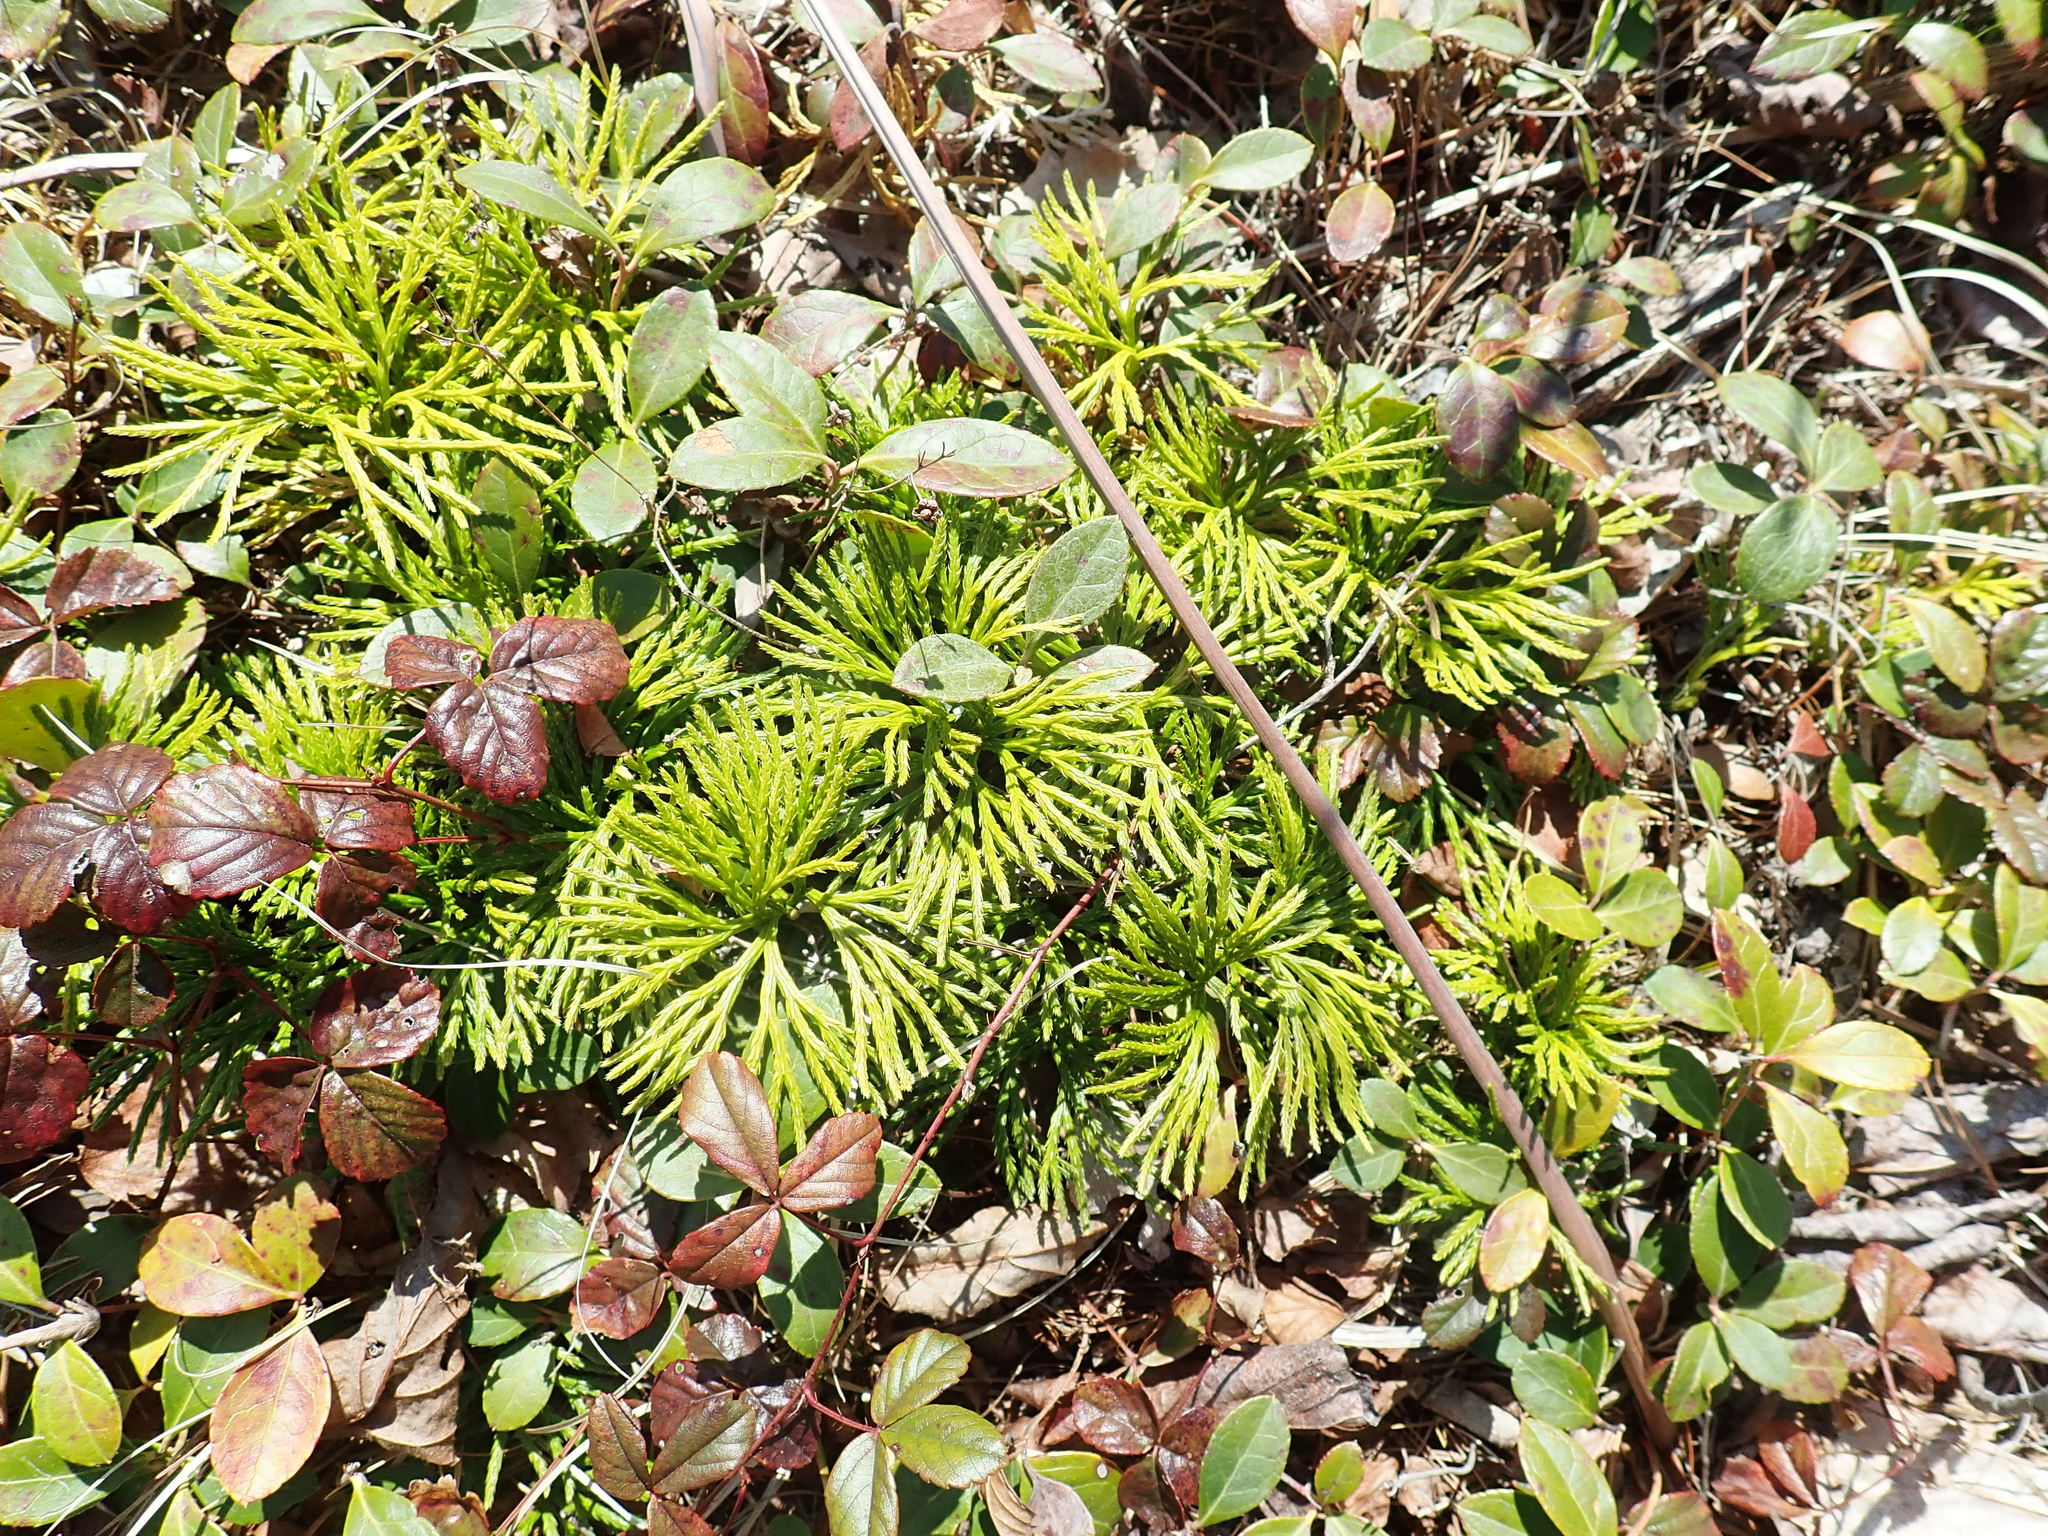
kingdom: Plantae
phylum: Tracheophyta
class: Lycopodiopsida
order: Lycopodiales
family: Lycopodiaceae
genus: Diphasiastrum
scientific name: Diphasiastrum digitatum
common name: Southern running-pine
